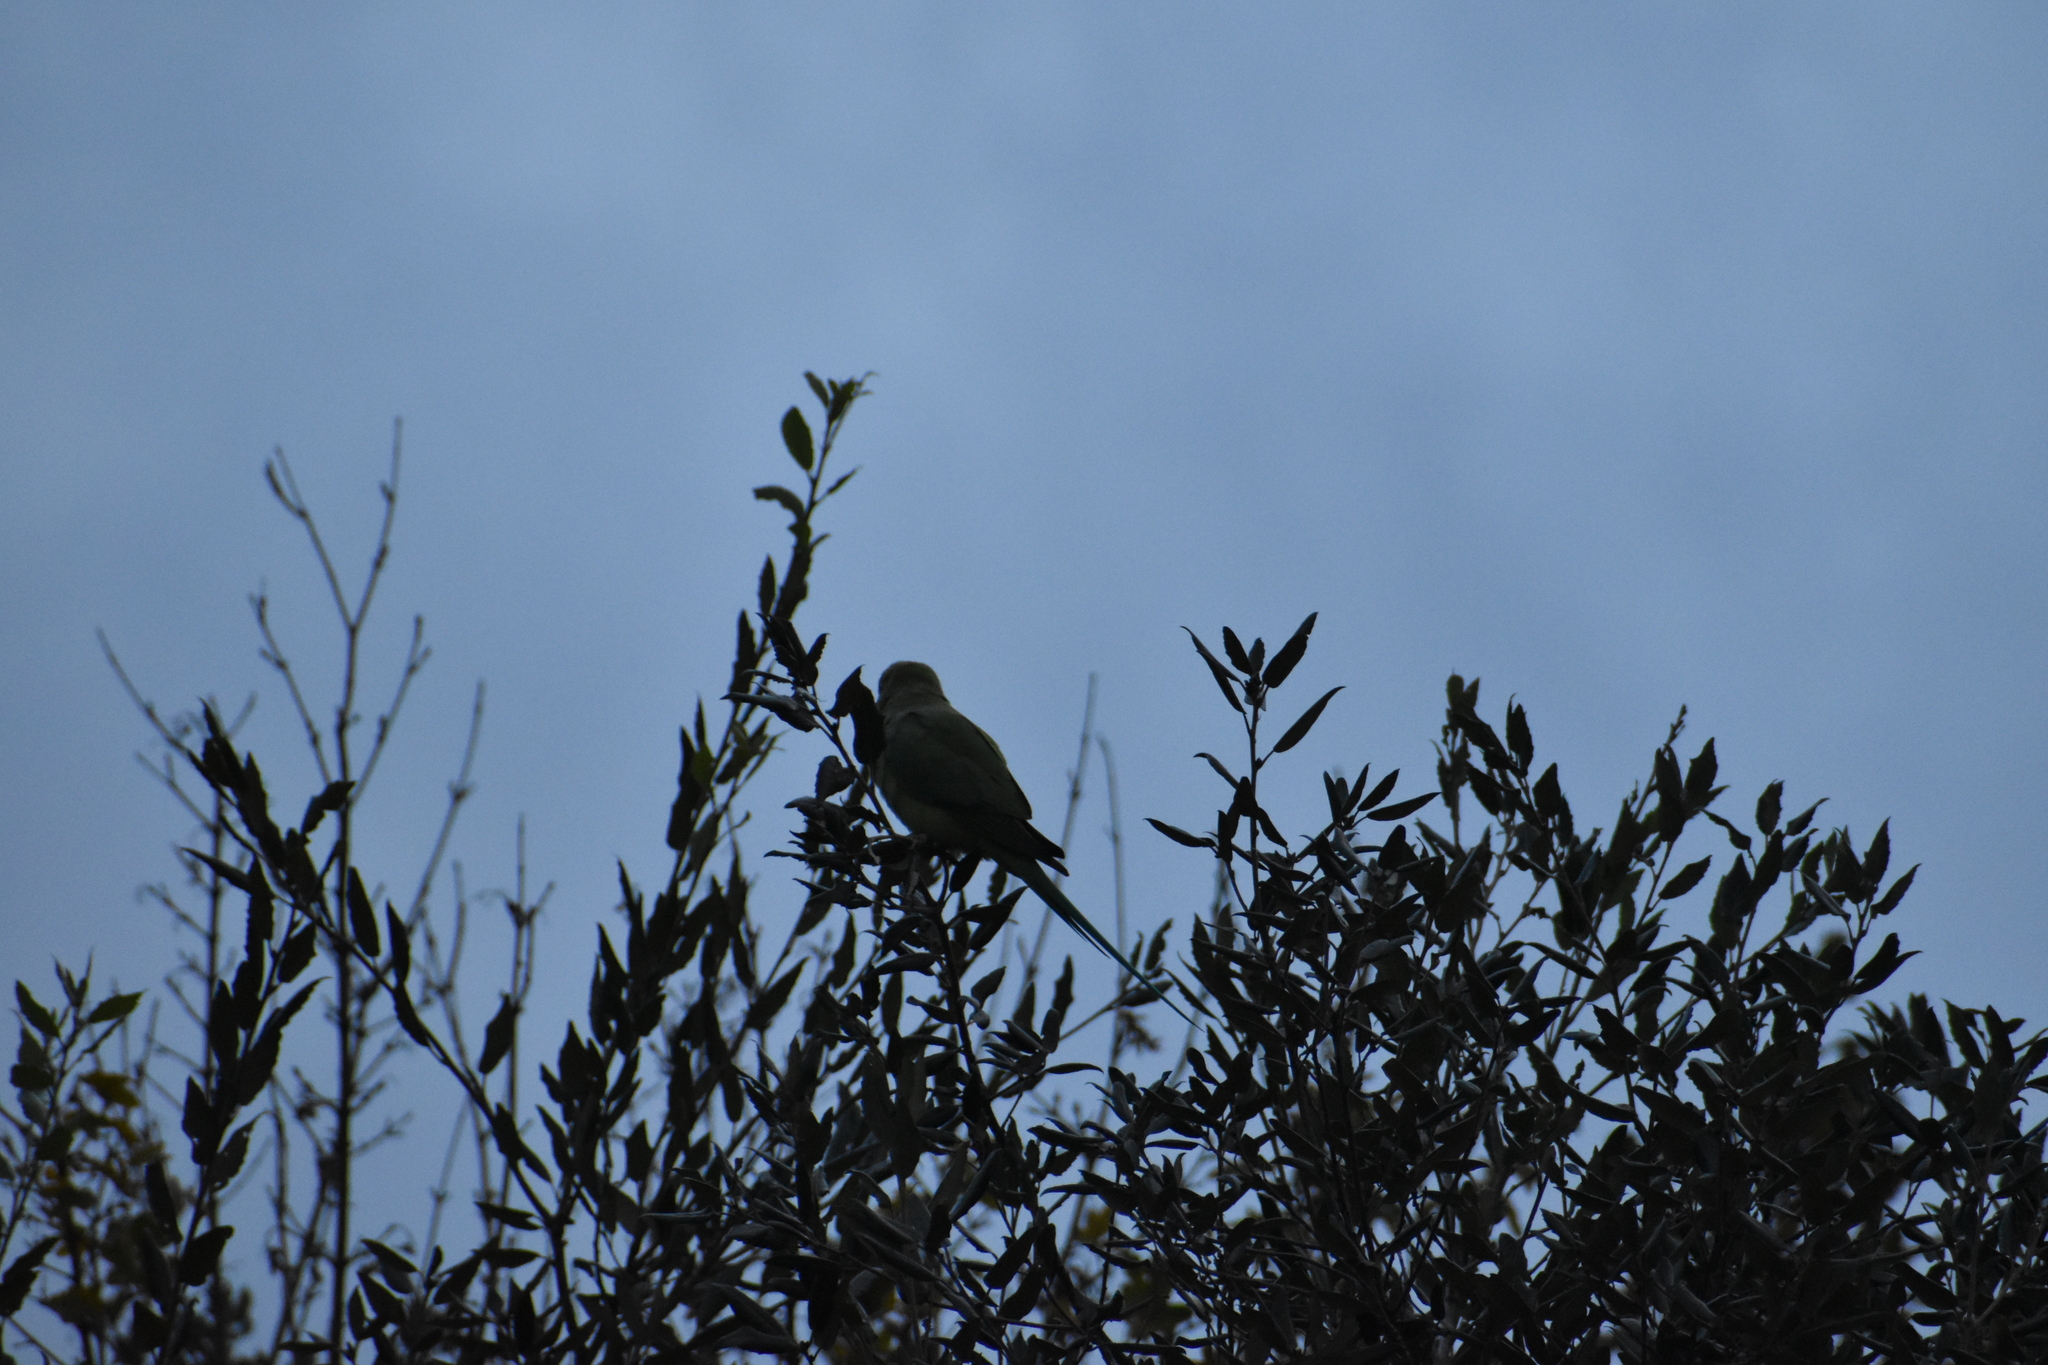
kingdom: Animalia
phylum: Chordata
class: Aves
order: Psittaciformes
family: Psittacidae
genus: Psittacula
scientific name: Psittacula krameri
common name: Rose-ringed parakeet
